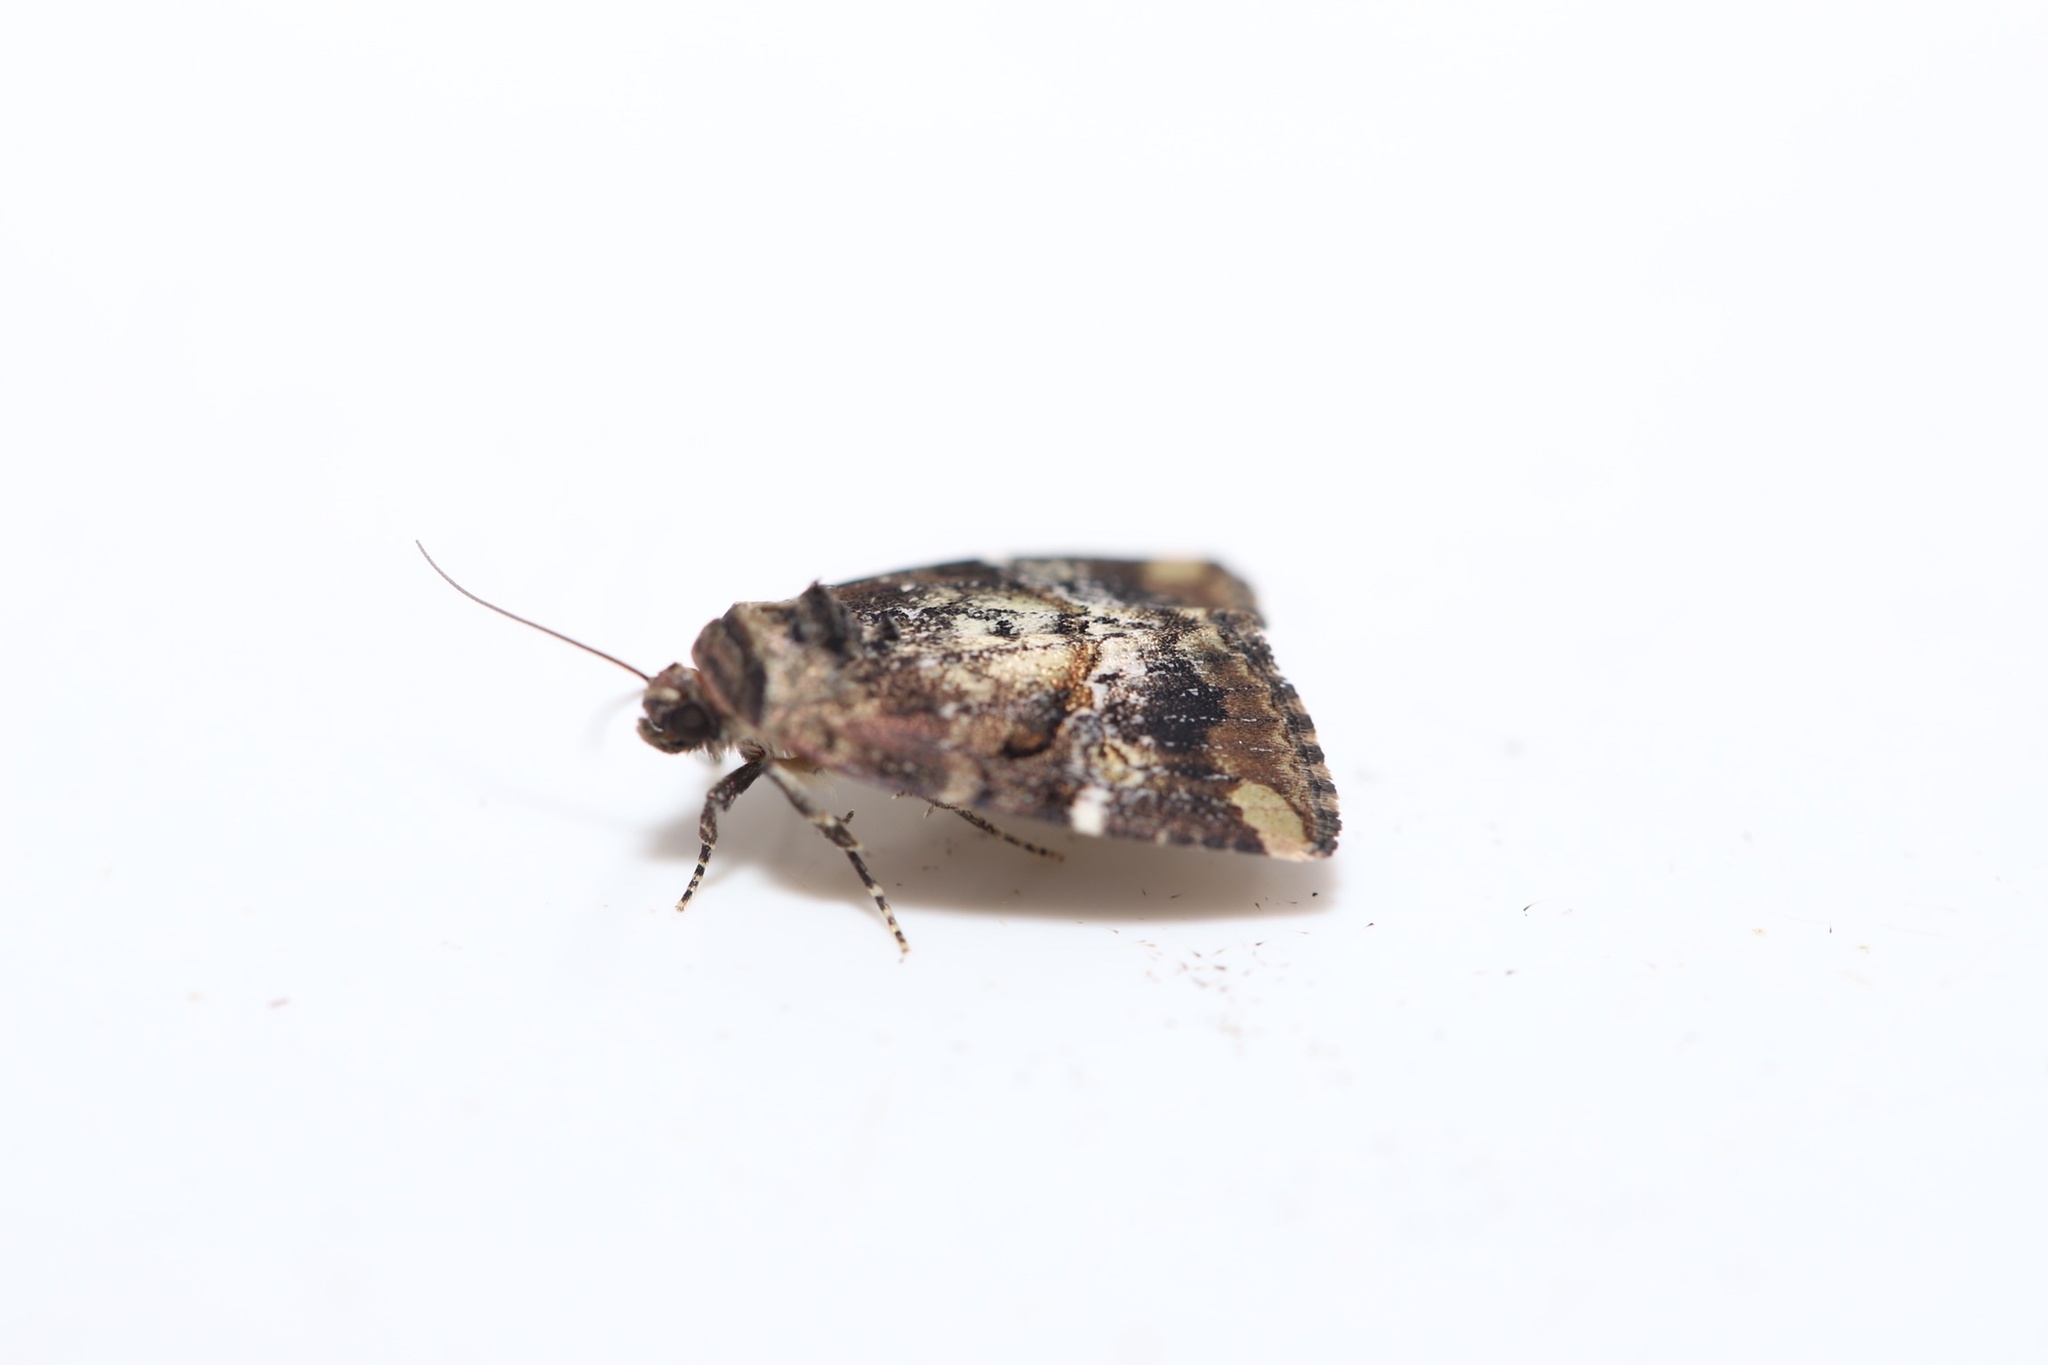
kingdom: Animalia
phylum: Arthropoda
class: Insecta
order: Lepidoptera
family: Noctuidae
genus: Elaphria
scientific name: Elaphria alapallida
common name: Pale-winged midget
